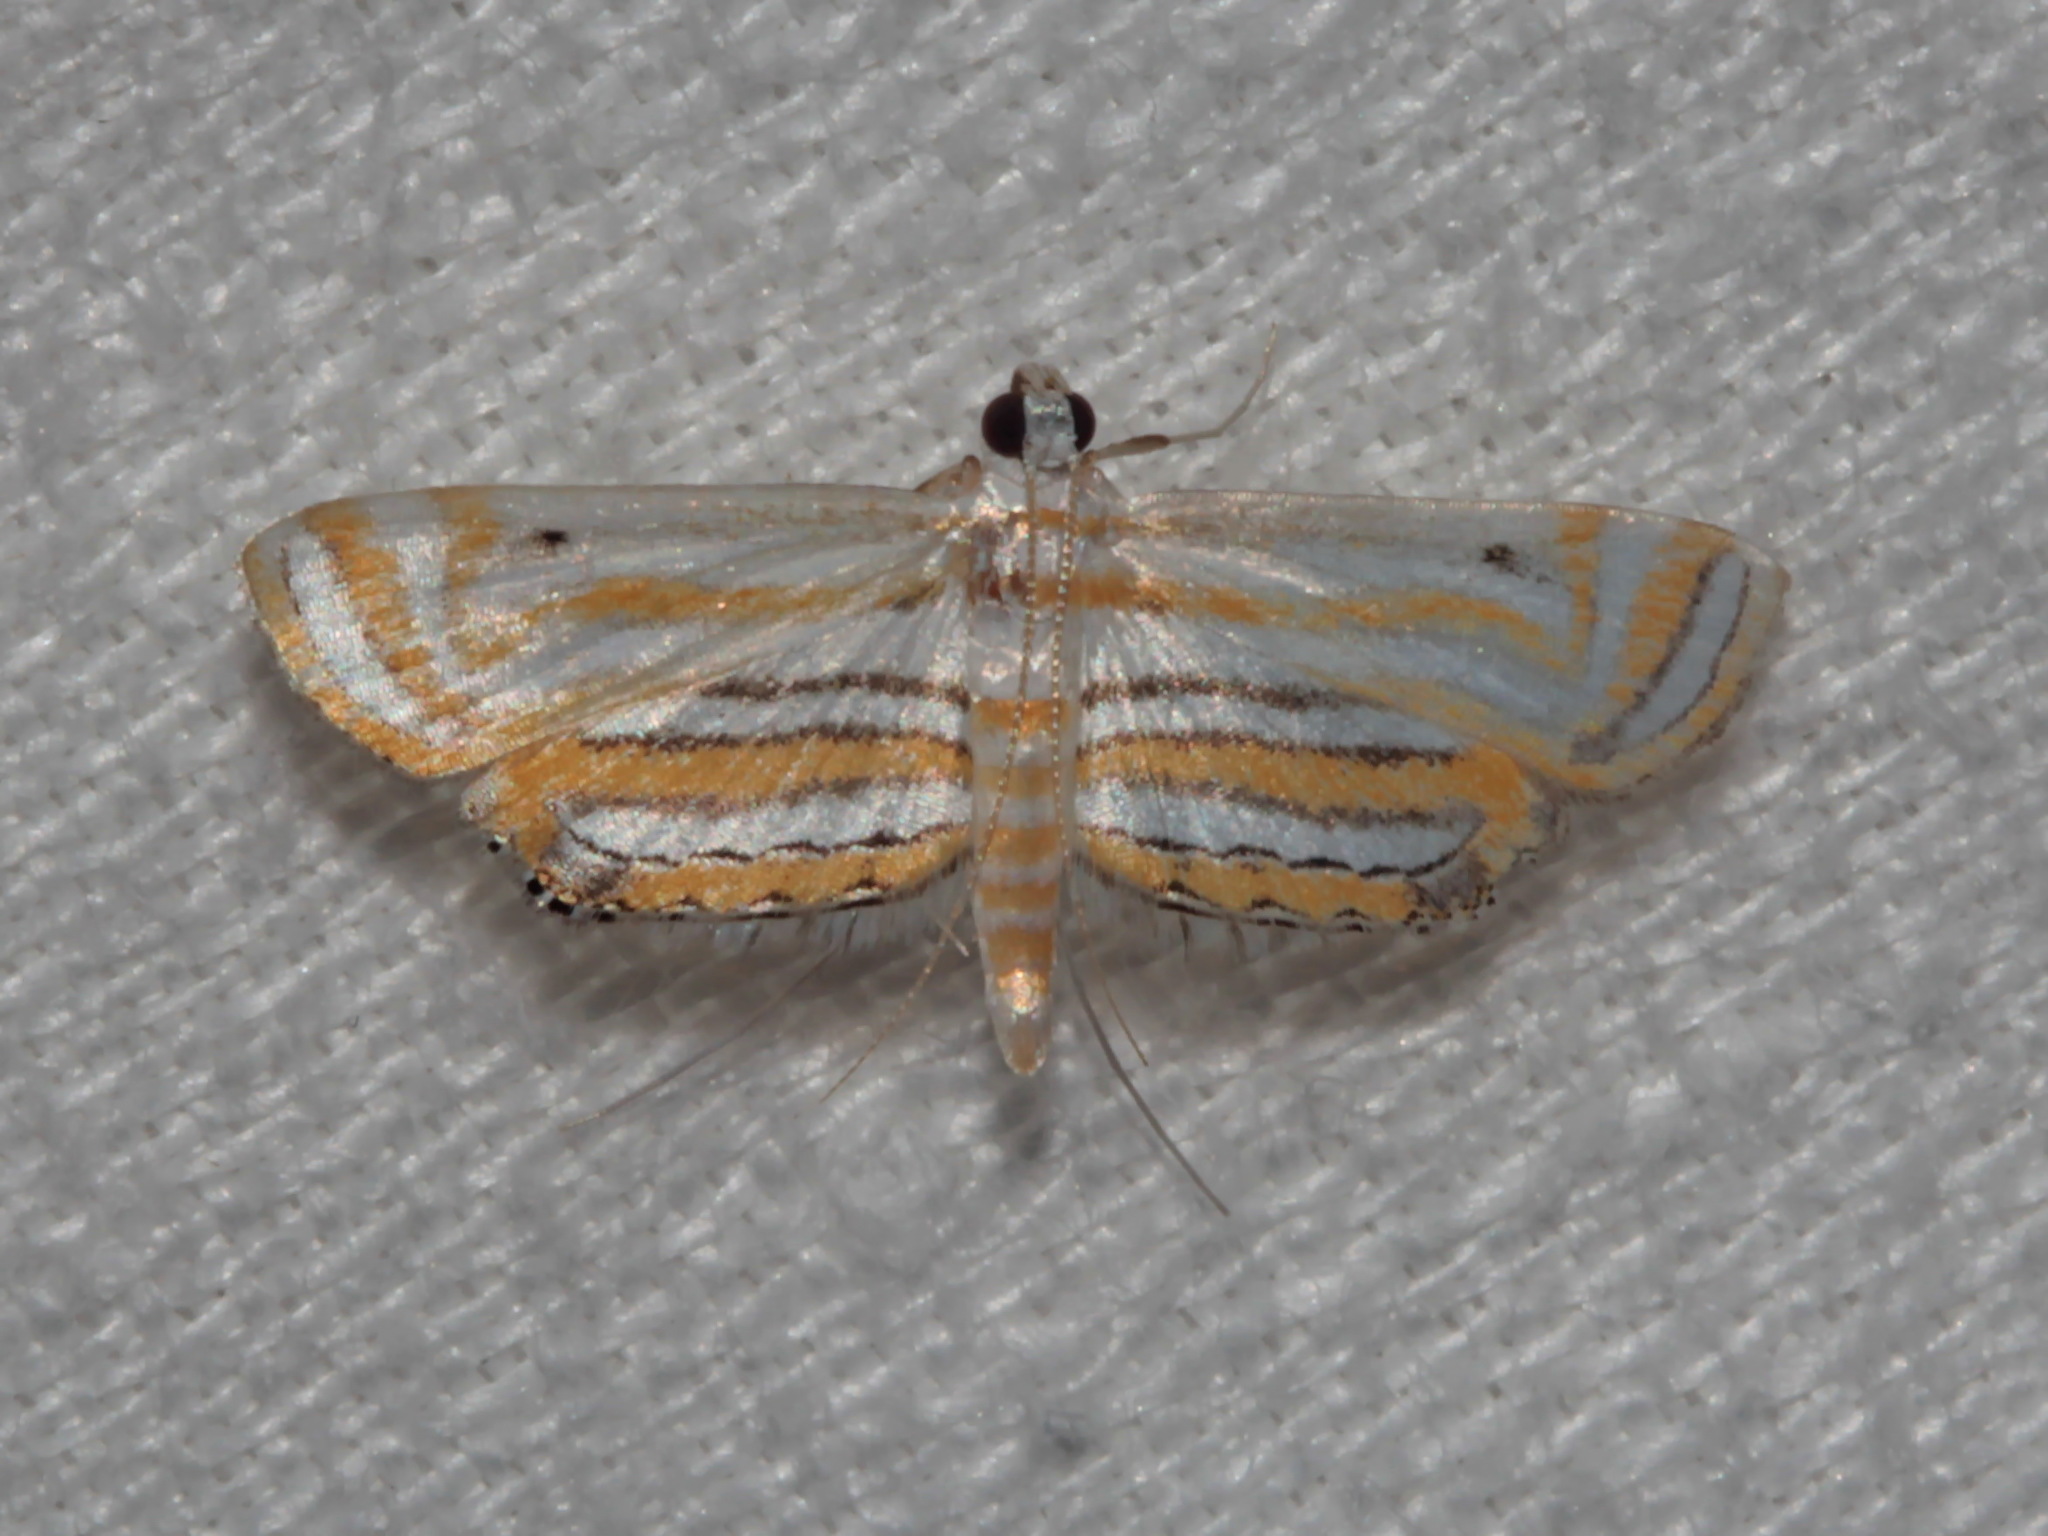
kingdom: Animalia
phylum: Arthropoda
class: Insecta
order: Lepidoptera
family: Crambidae
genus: Parapoynx
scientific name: Parapoynx villidalis
